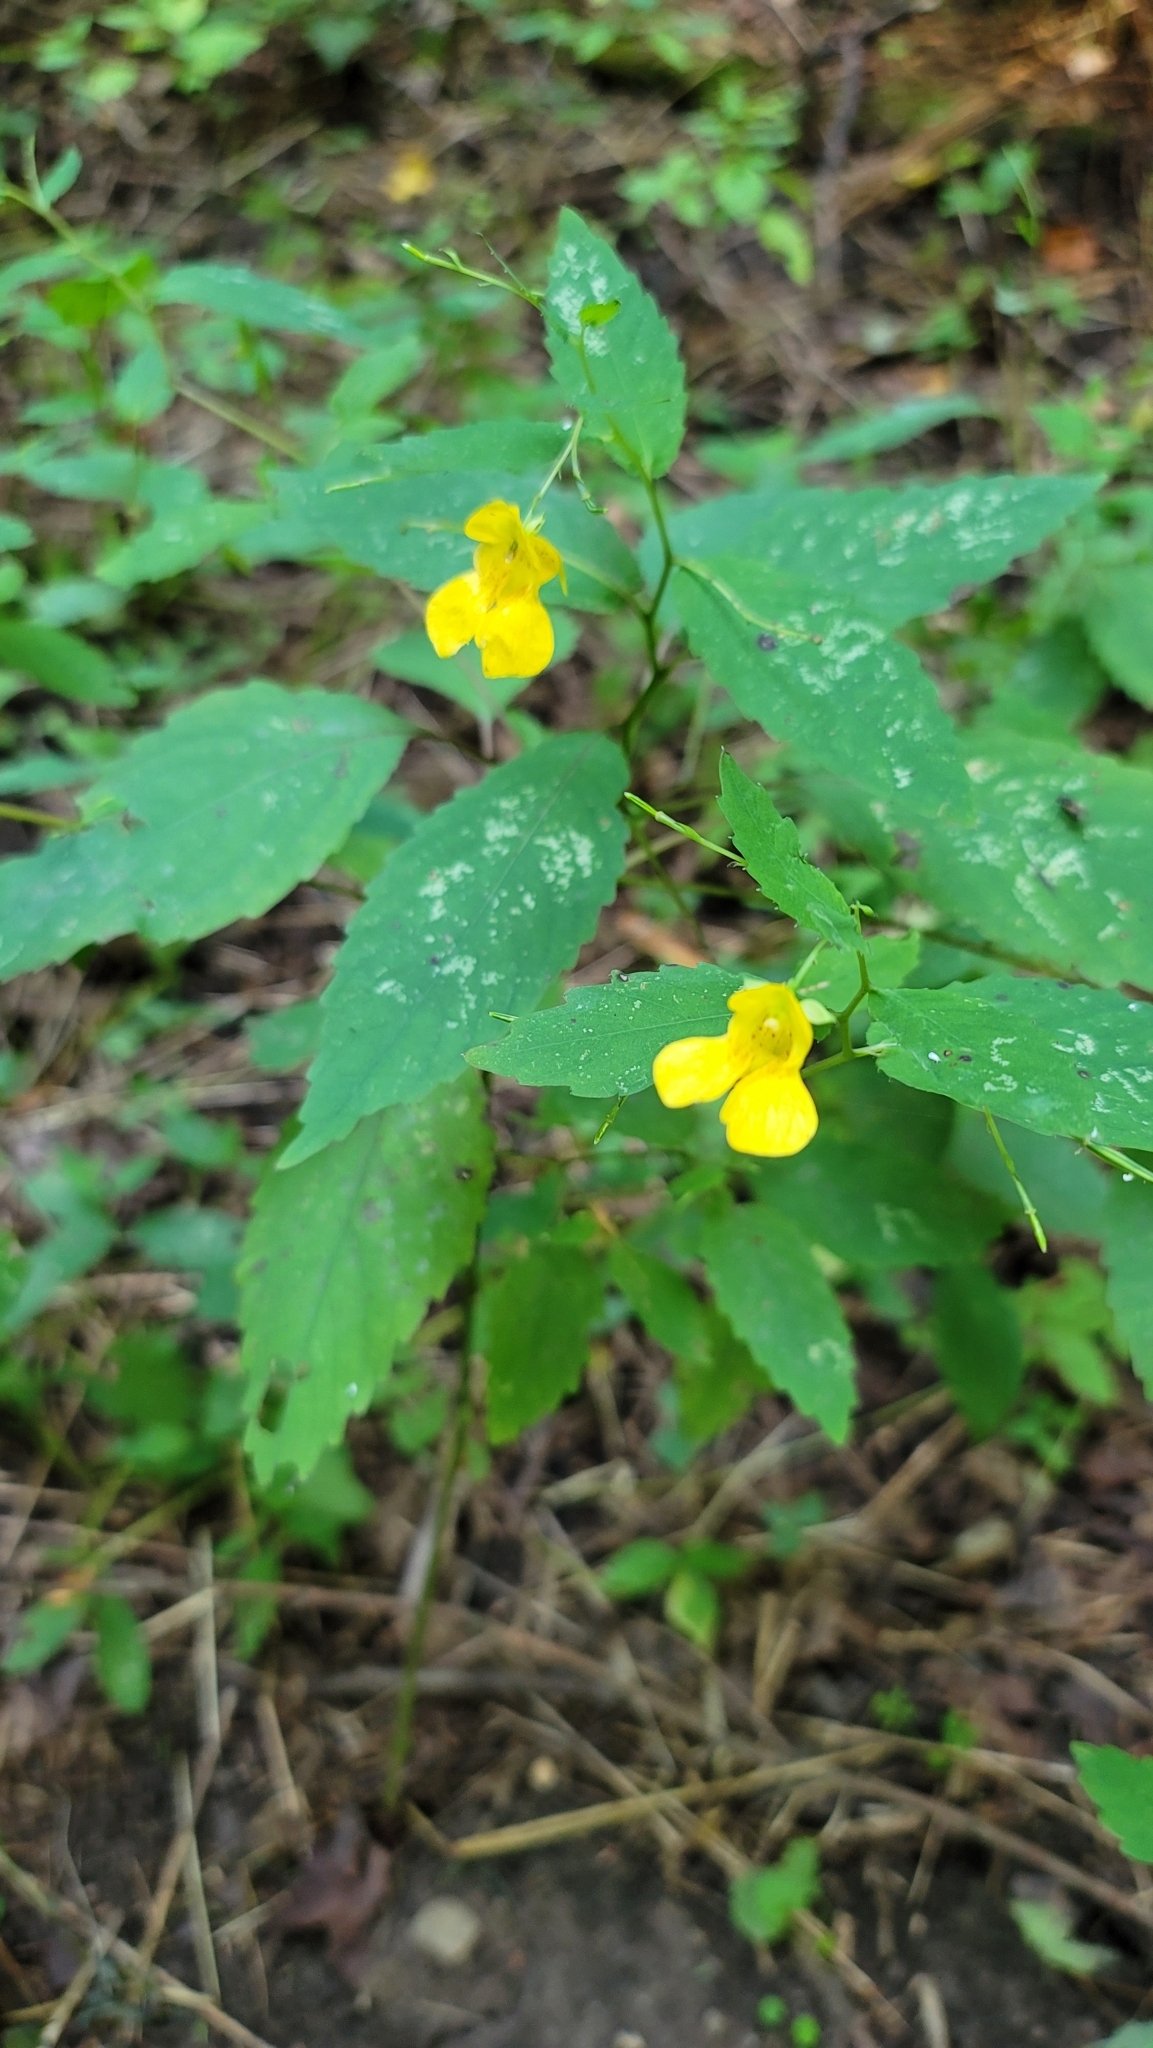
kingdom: Plantae
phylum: Tracheophyta
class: Magnoliopsida
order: Ericales
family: Balsaminaceae
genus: Impatiens
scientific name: Impatiens pallida
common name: Pale snapweed
